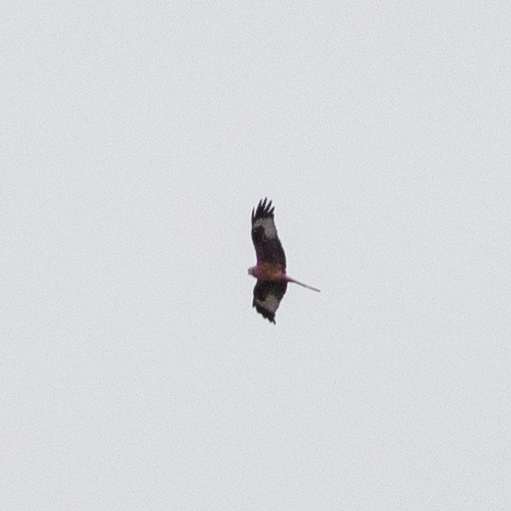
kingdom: Animalia
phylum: Chordata
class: Aves
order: Accipitriformes
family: Accipitridae
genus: Milvus
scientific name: Milvus milvus
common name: Red kite
